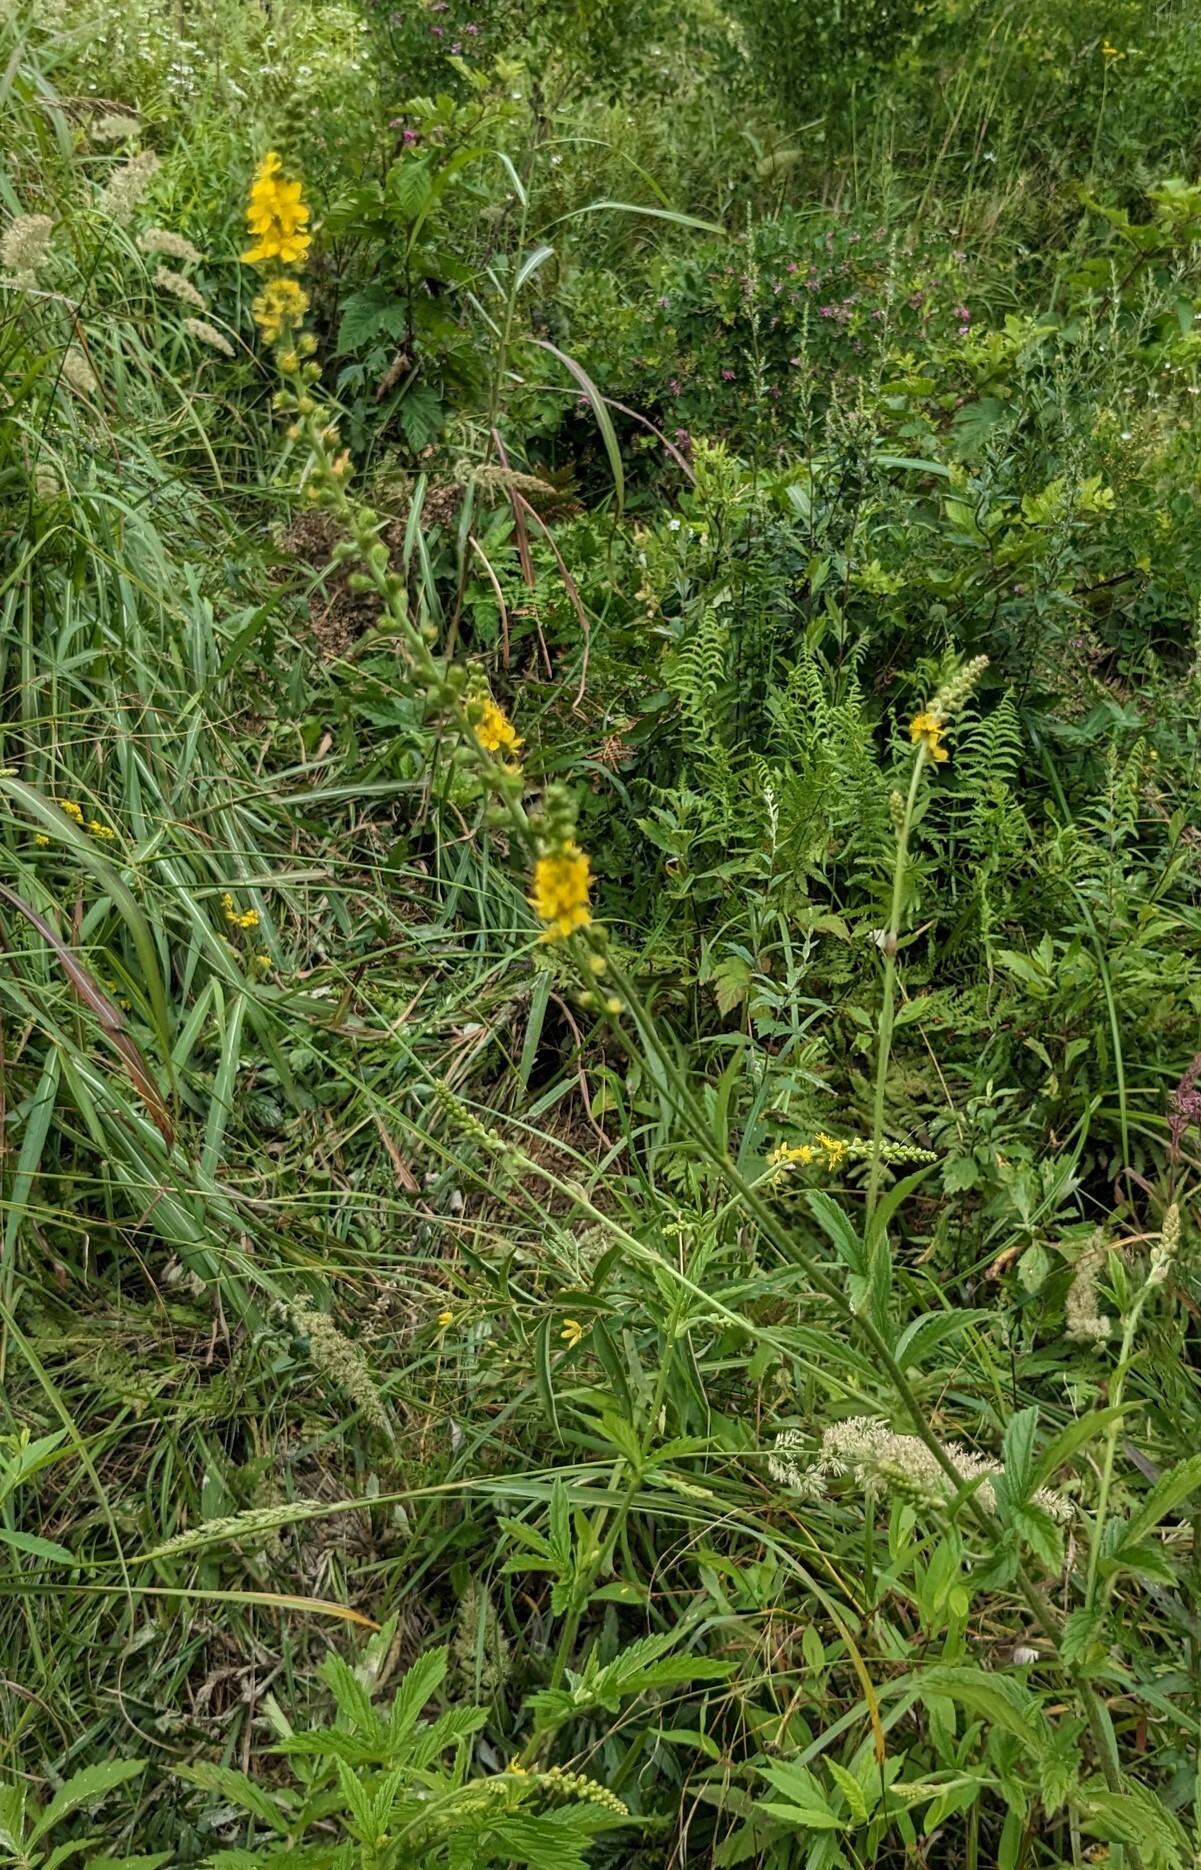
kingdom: Plantae
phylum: Tracheophyta
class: Magnoliopsida
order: Rosales
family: Rosaceae
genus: Agrimonia
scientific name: Agrimonia pilosa
